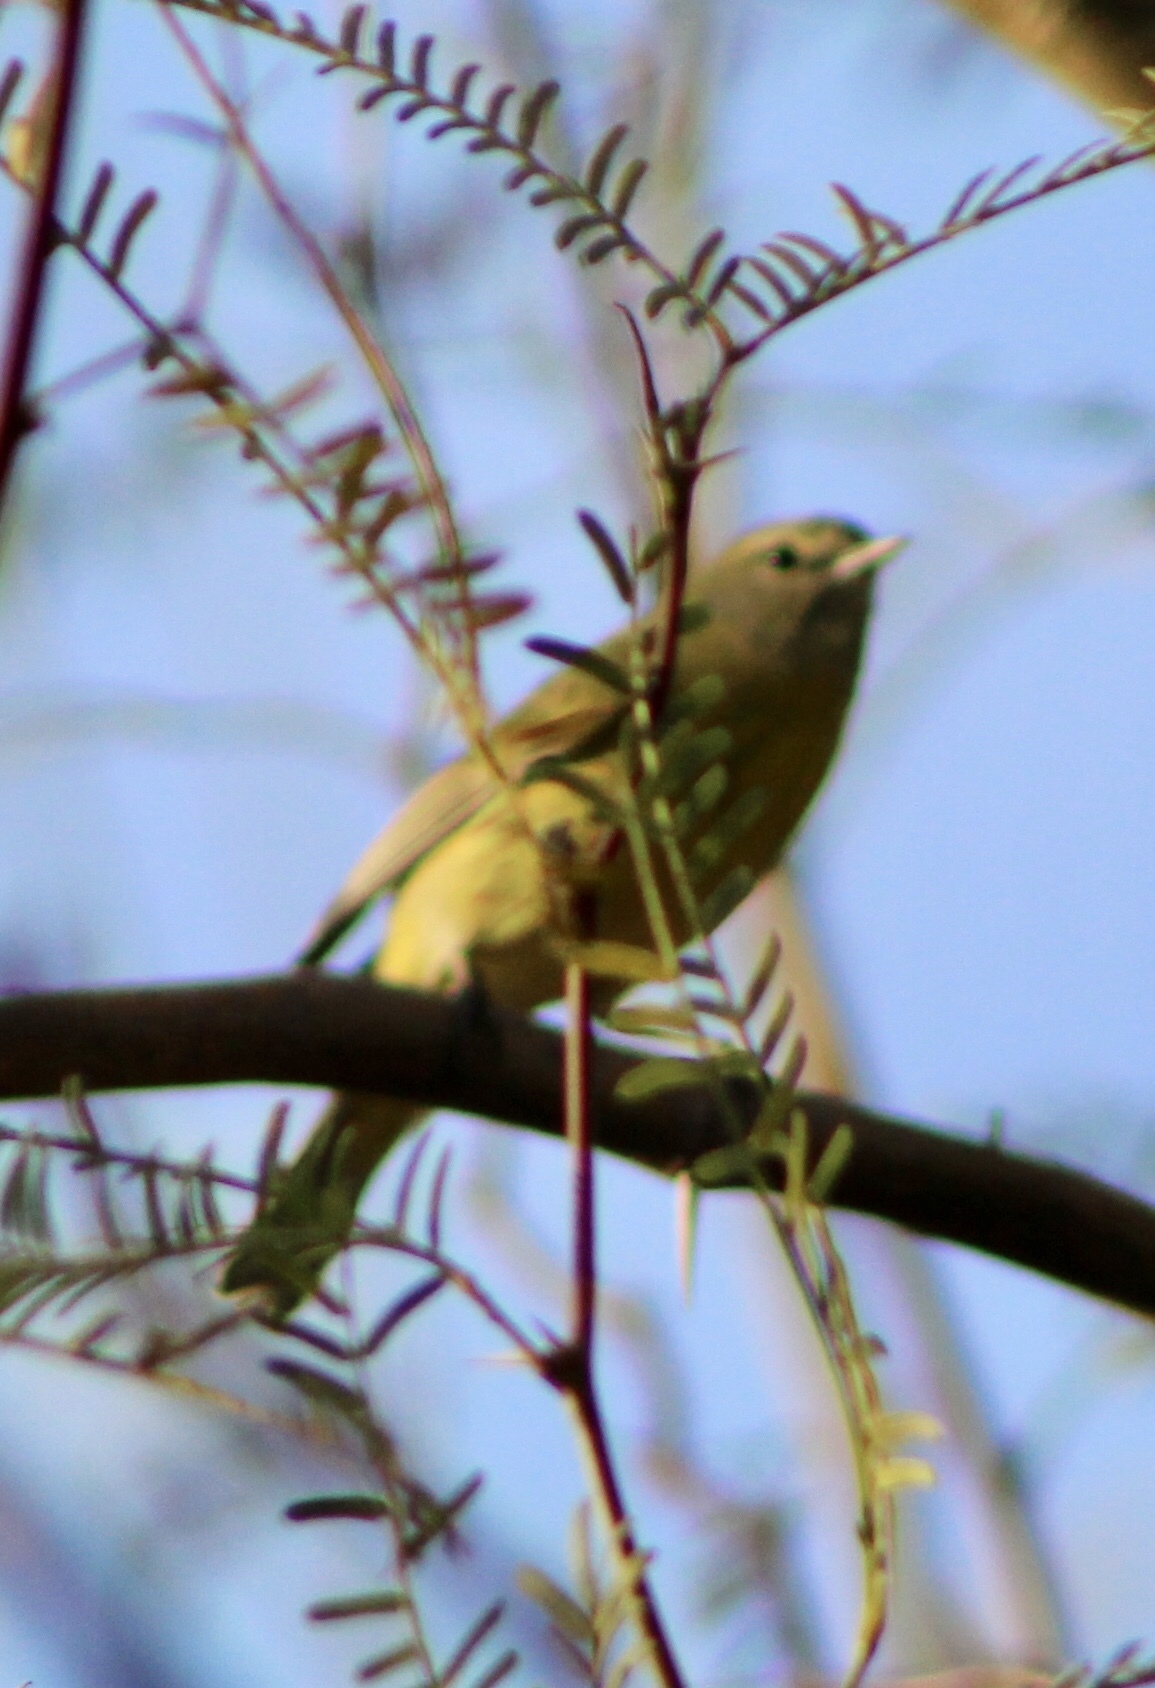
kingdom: Animalia
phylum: Chordata
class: Aves
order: Passeriformes
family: Parulidae
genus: Leiothlypis
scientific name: Leiothlypis celata
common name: Orange-crowned warbler
